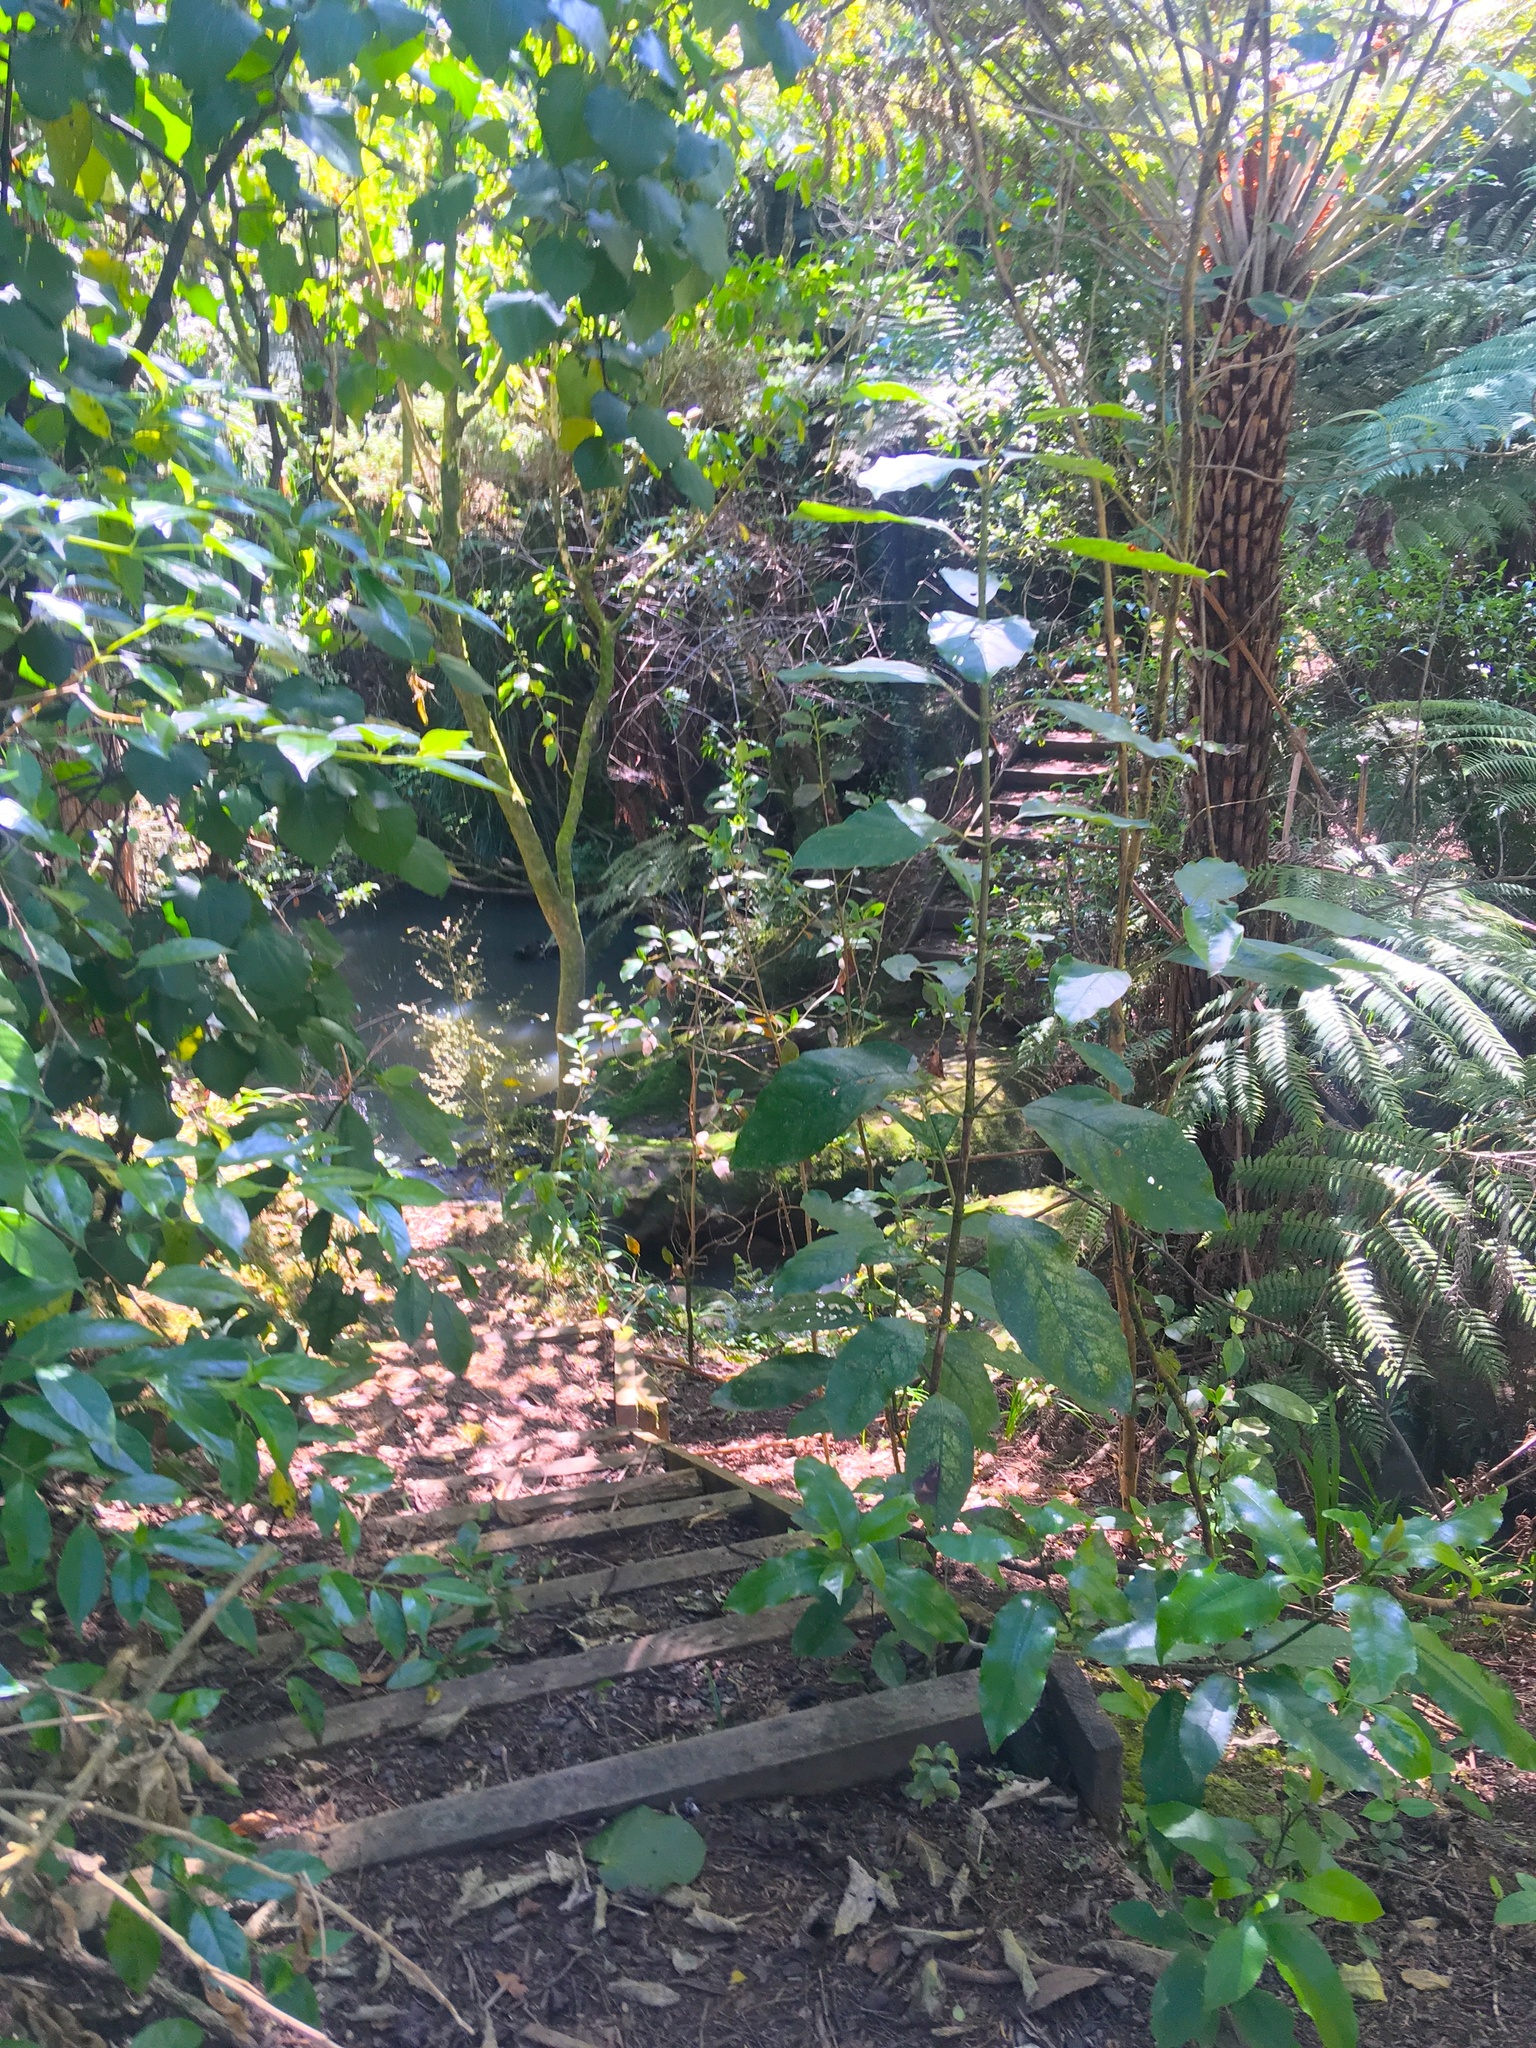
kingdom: Plantae
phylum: Tracheophyta
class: Magnoliopsida
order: Gentianales
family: Rubiaceae
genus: Coprosma
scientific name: Coprosma autumnalis
